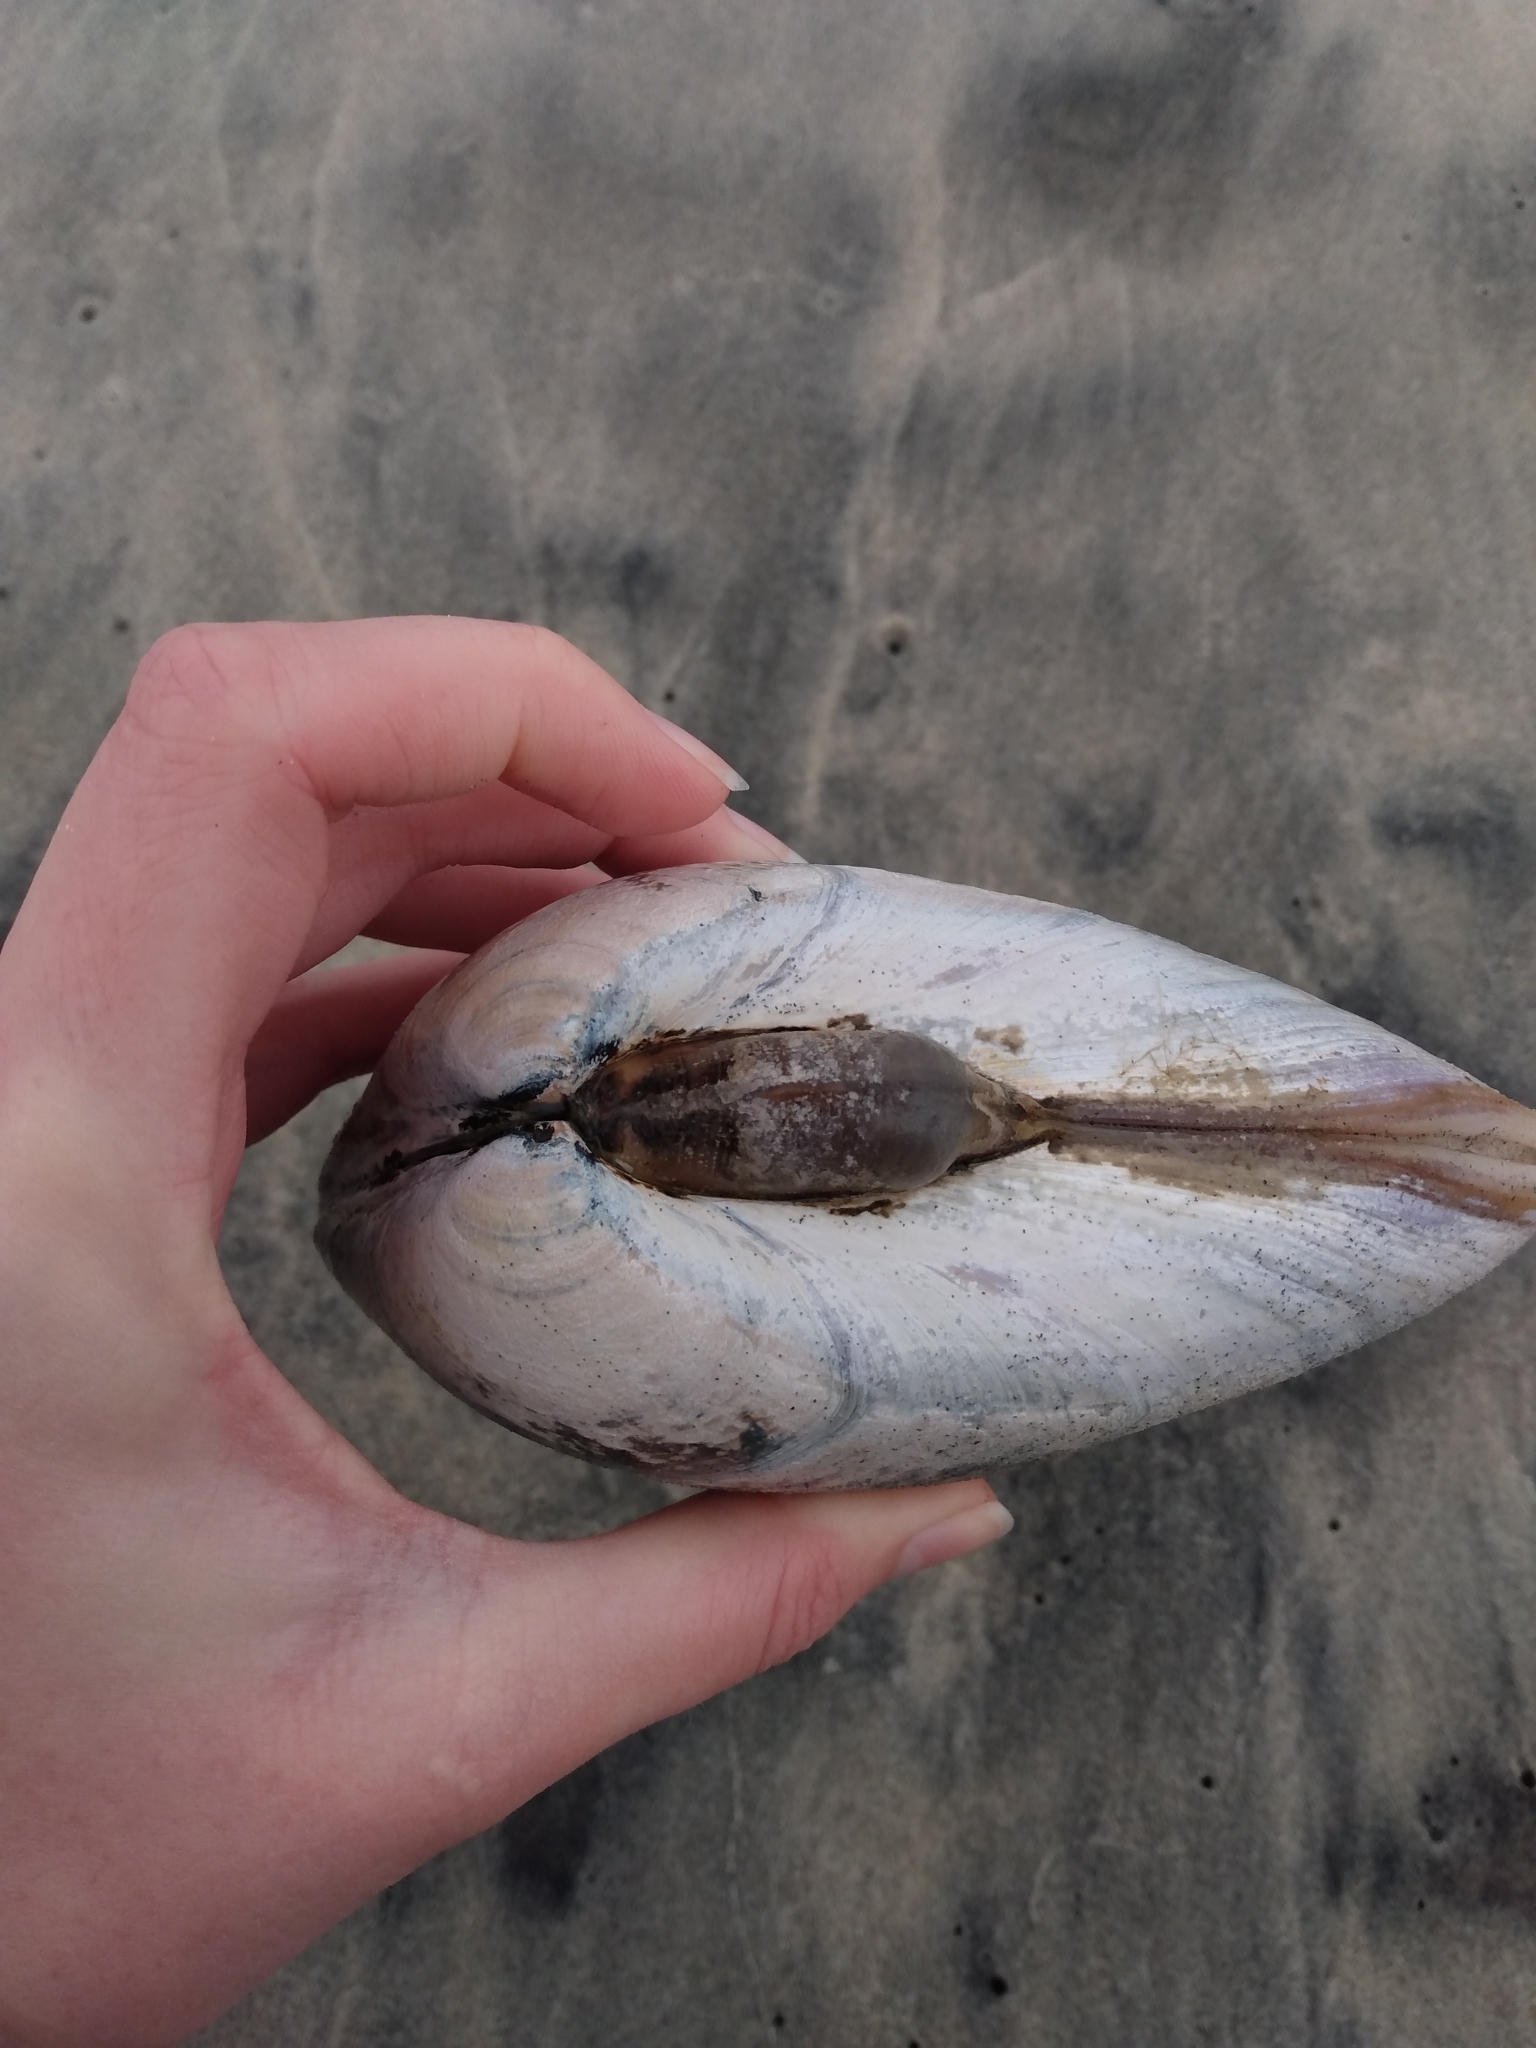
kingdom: Animalia
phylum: Mollusca
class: Bivalvia
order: Venerida
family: Veneridae
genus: Tivela
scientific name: Tivela stultorum
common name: Pismo clam
